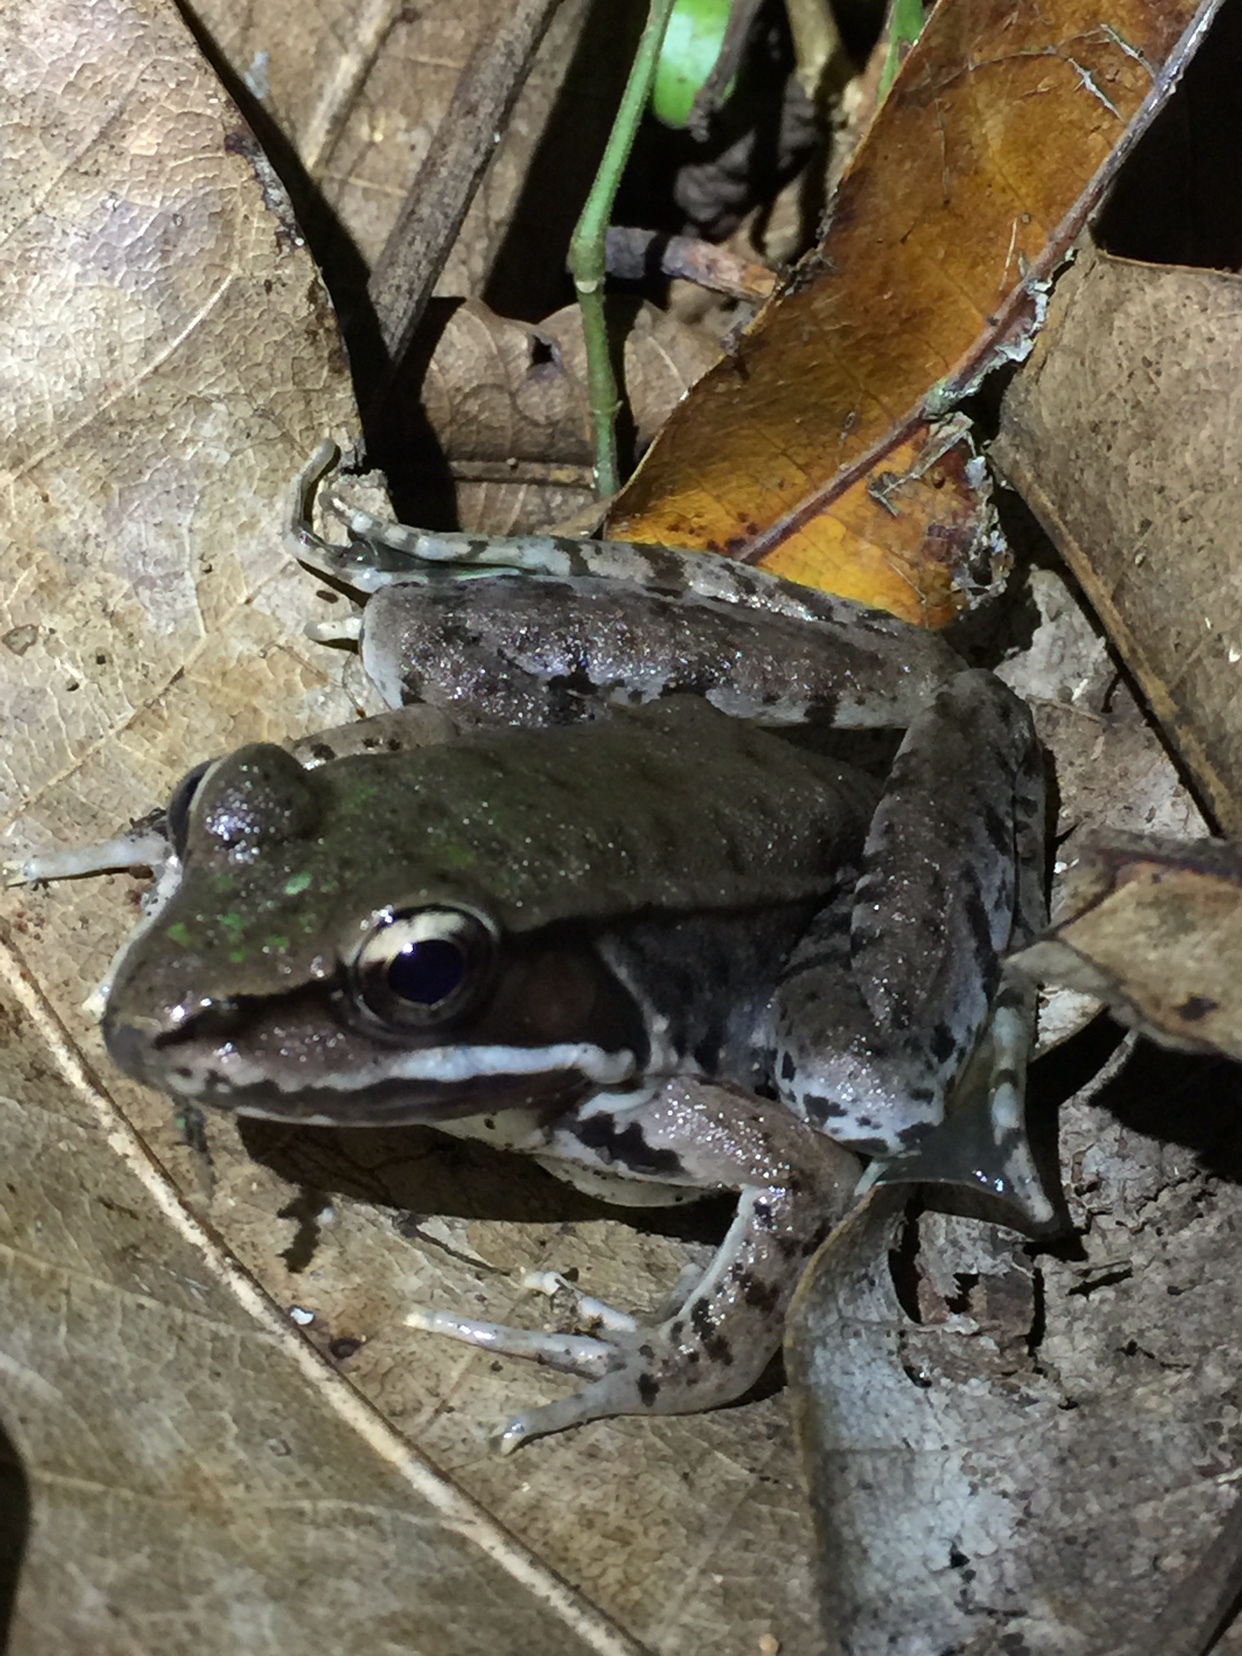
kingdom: Animalia
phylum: Chordata
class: Amphibia
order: Anura
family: Ranidae
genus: Lithobates
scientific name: Lithobates maculatus
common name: Highland frog
